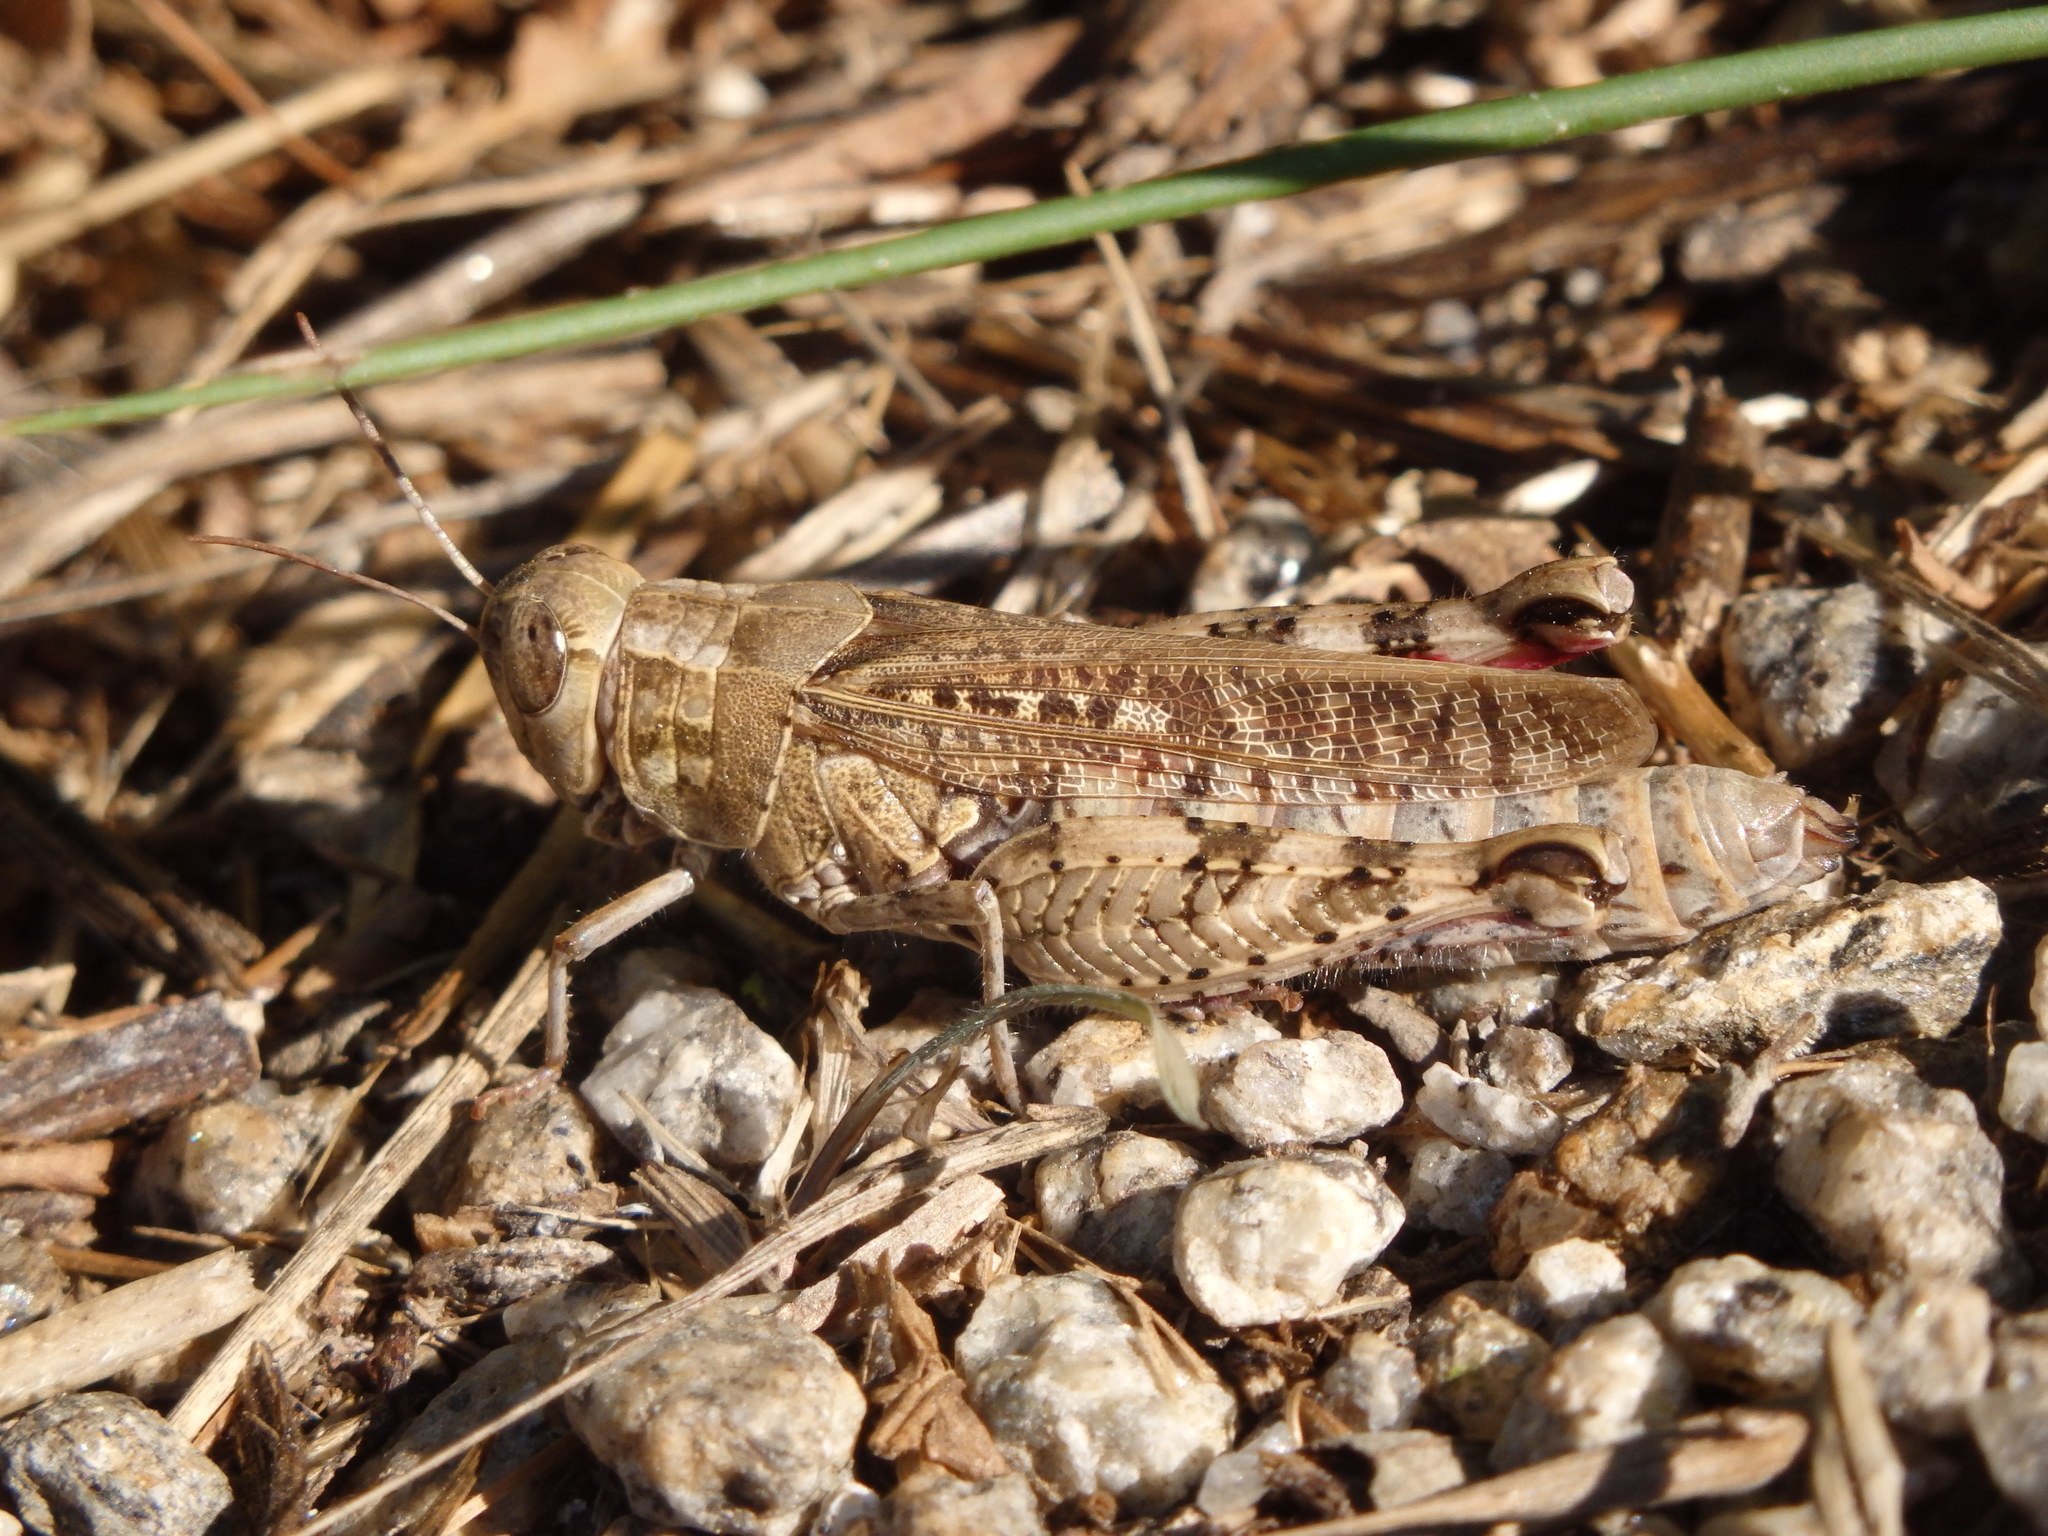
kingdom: Animalia
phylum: Arthropoda
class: Insecta
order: Orthoptera
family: Acrididae
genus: Calliptamus
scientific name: Calliptamus barbarus
